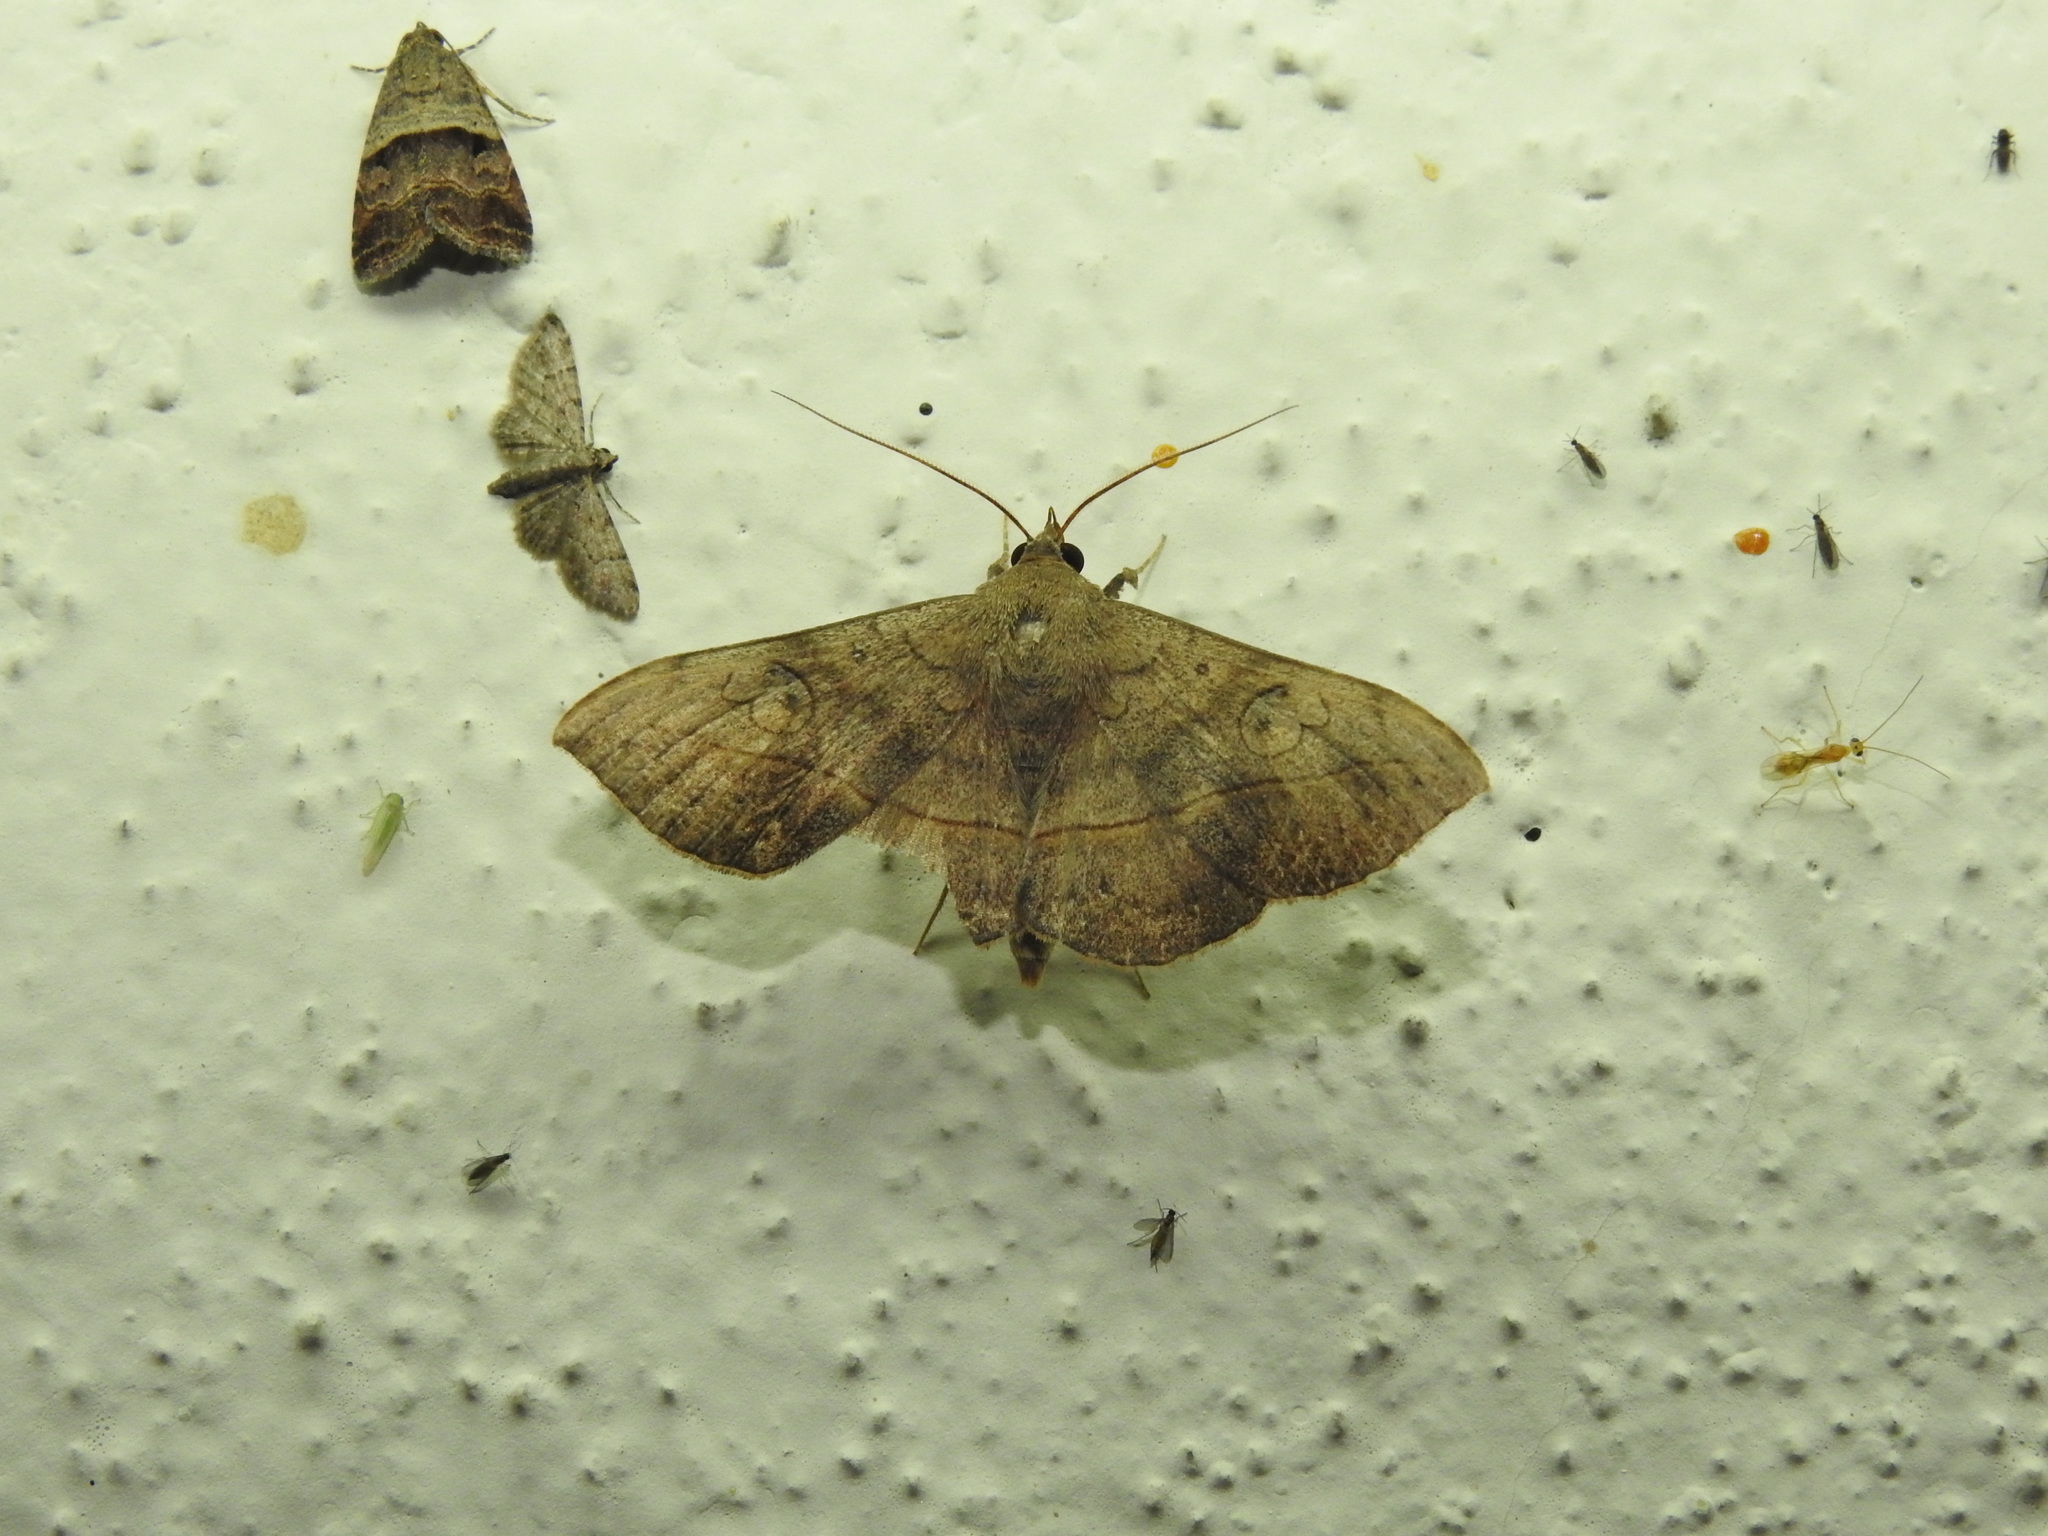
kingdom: Animalia
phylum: Arthropoda
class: Insecta
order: Lepidoptera
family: Erebidae
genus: Anticarsia
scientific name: Anticarsia irrorata
